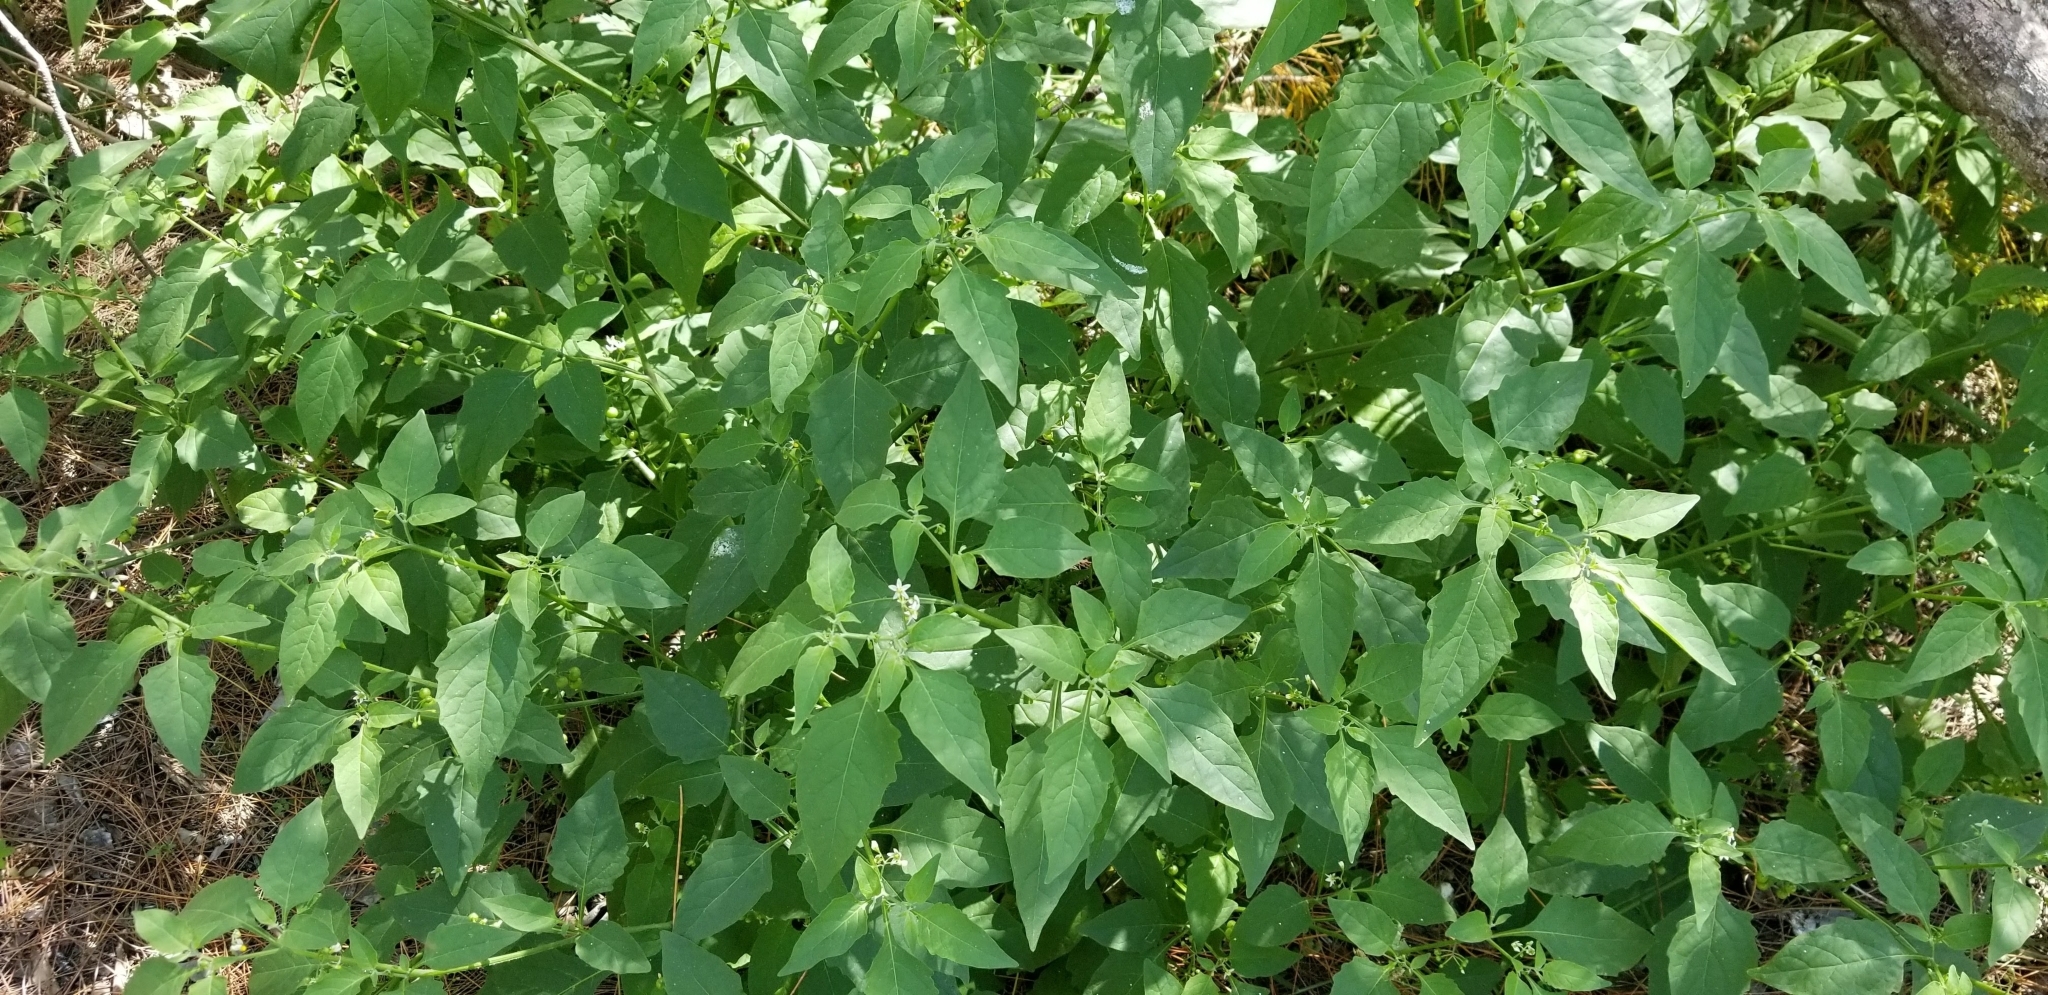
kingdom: Plantae
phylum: Tracheophyta
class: Magnoliopsida
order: Lamiales
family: Scrophulariaceae
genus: Capraria
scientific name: Capraria biflora
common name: Goatweed
